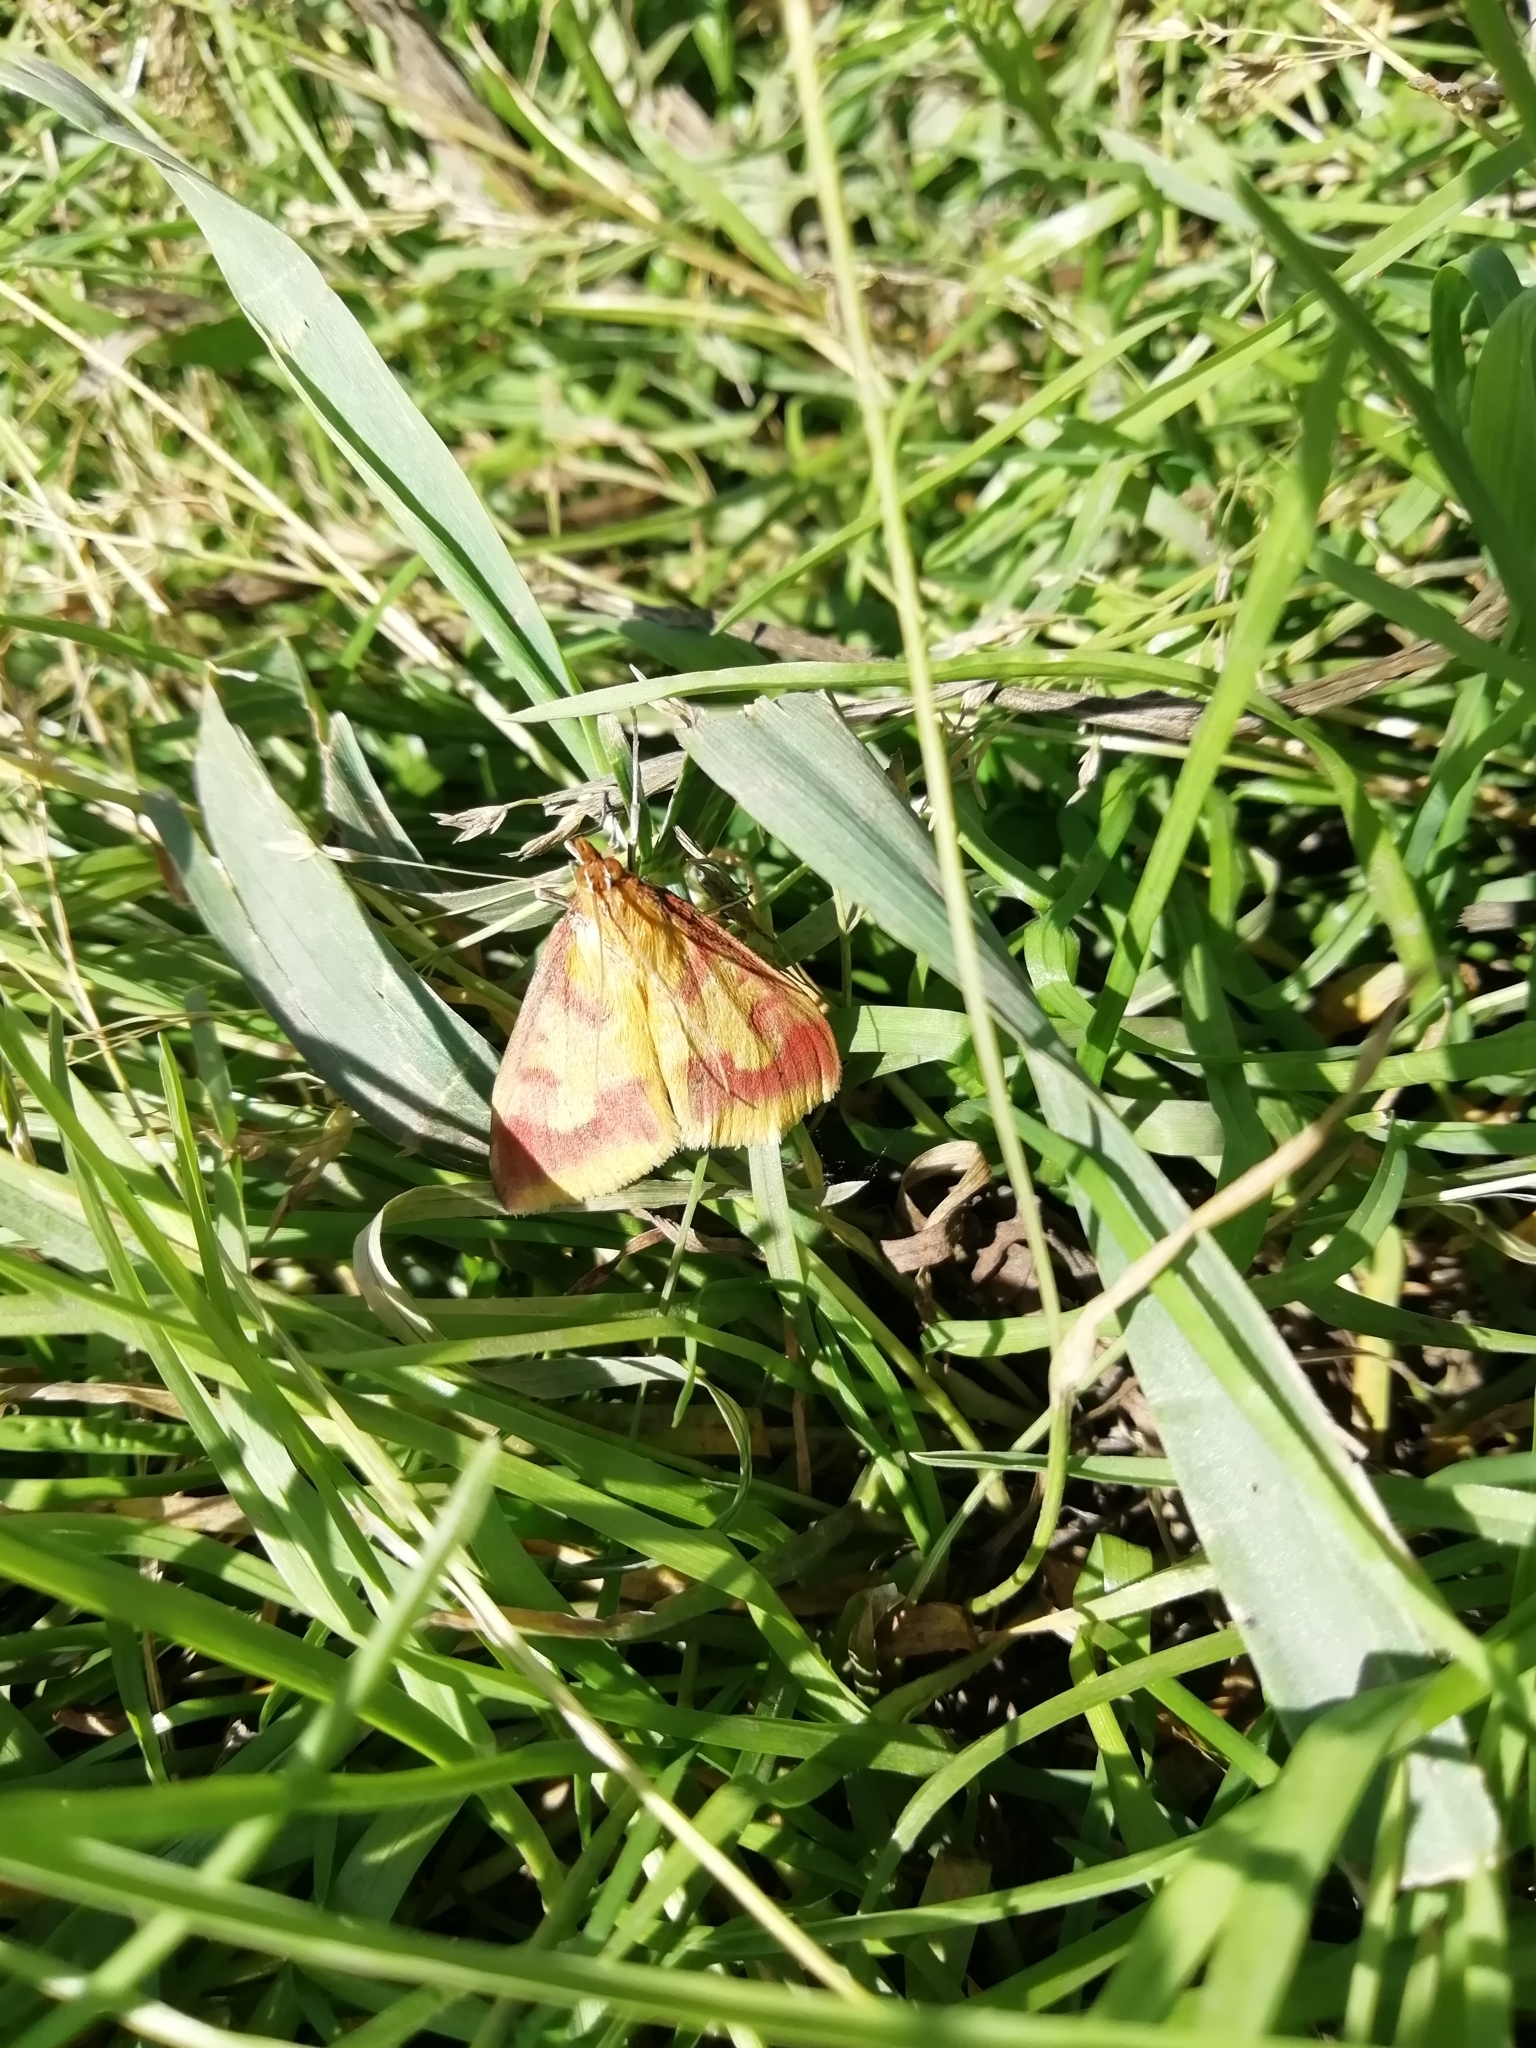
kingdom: Animalia
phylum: Arthropoda
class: Insecta
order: Lepidoptera
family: Crambidae
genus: Ostrinia
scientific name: Ostrinia palustralis
